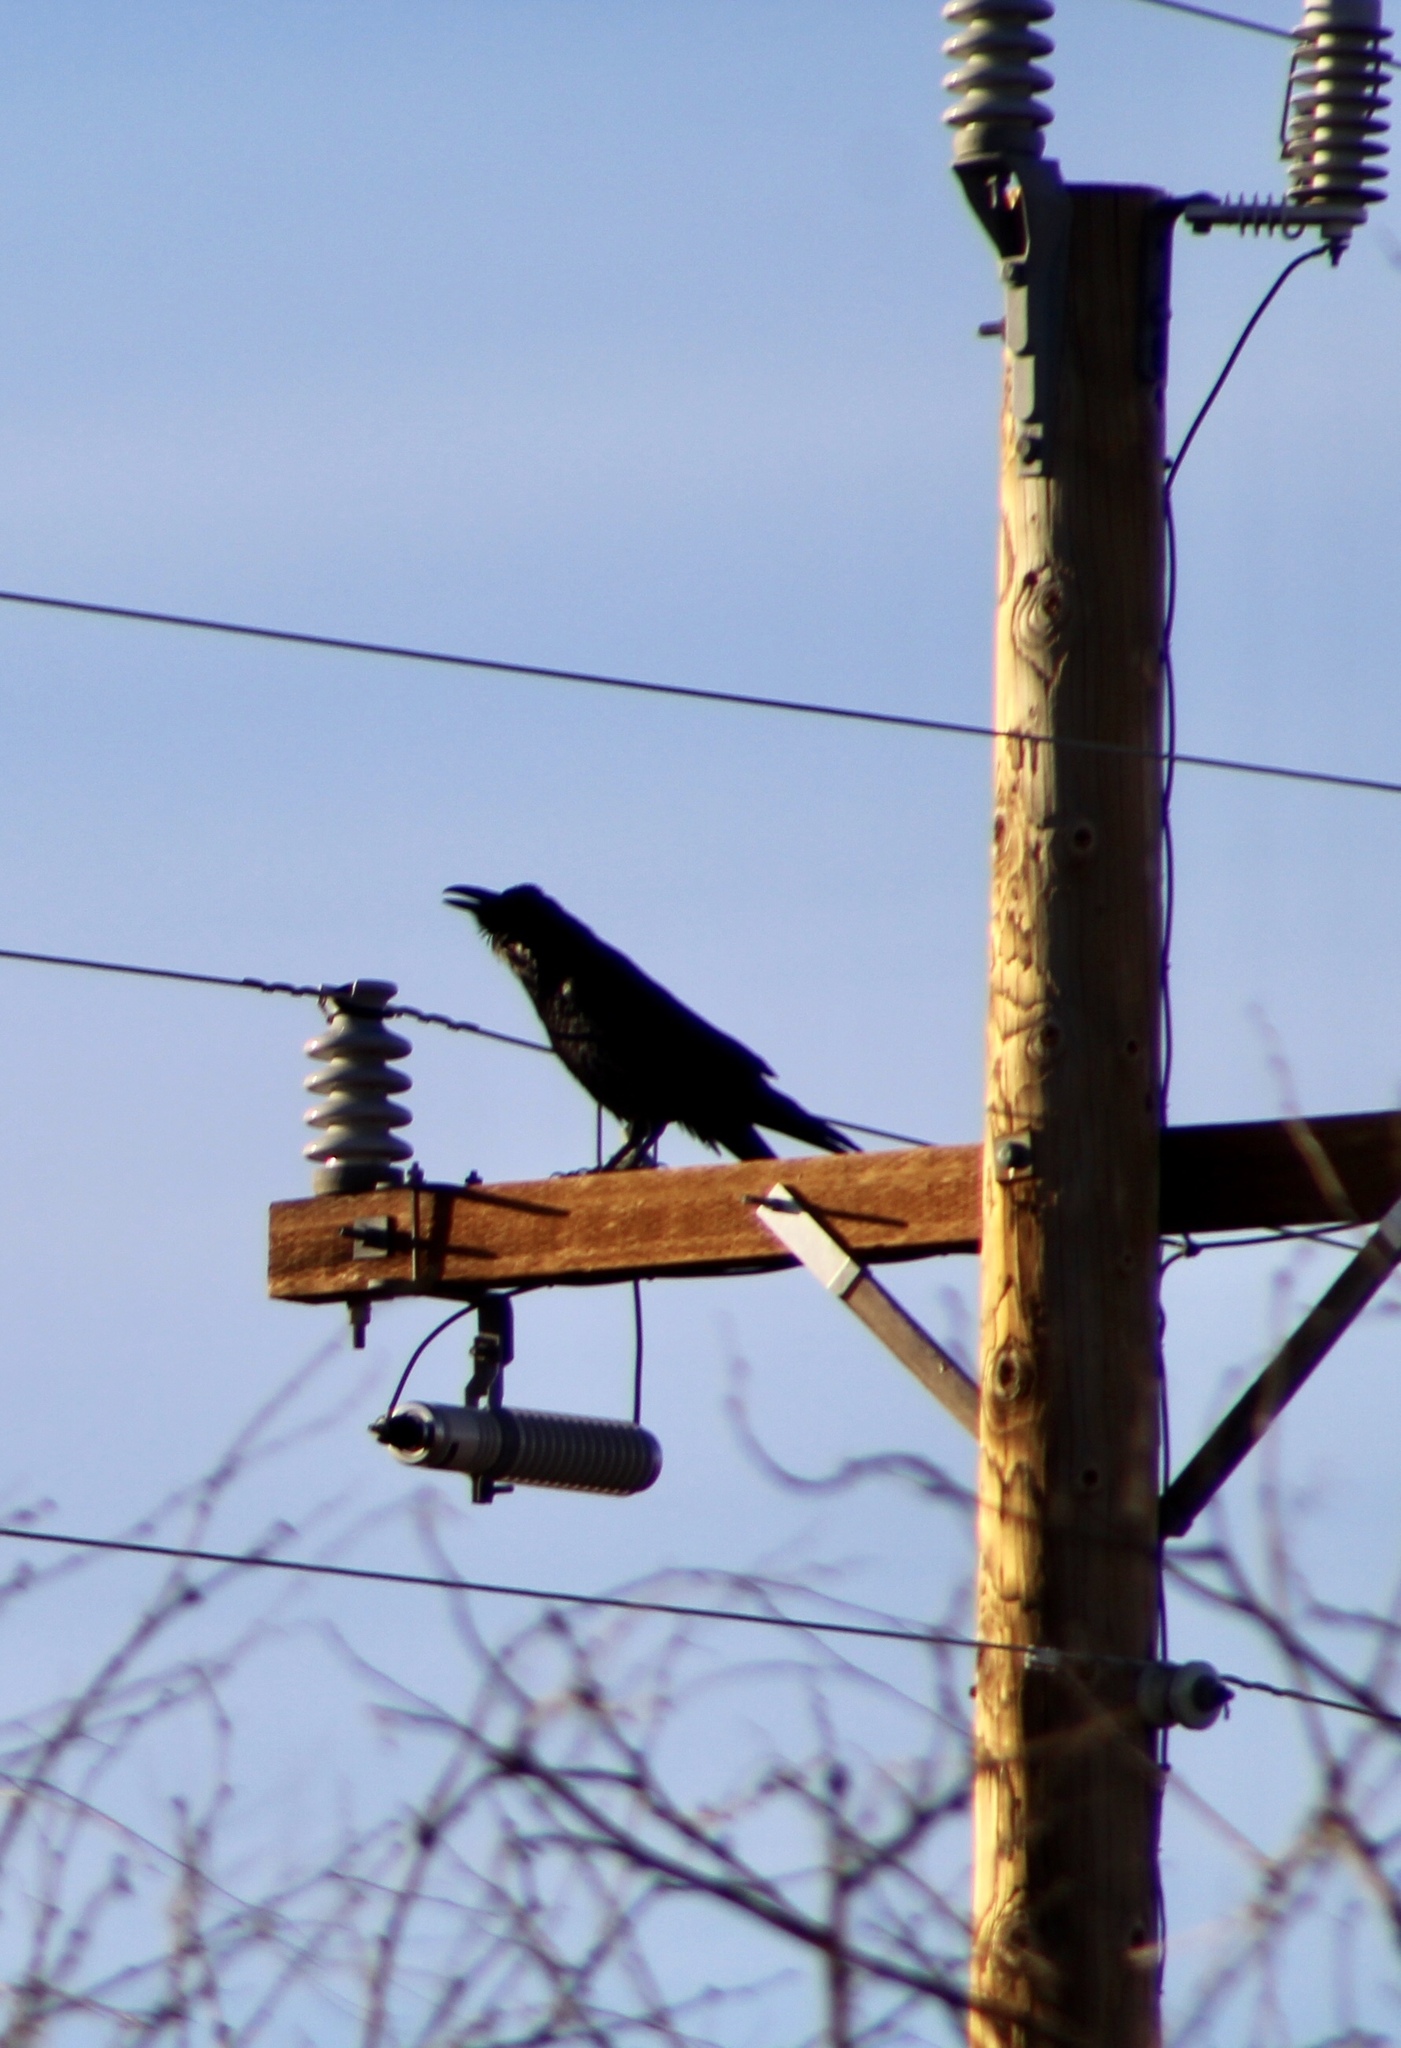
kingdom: Animalia
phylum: Chordata
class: Aves
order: Passeriformes
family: Corvidae
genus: Corvus
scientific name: Corvus corax
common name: Common raven
